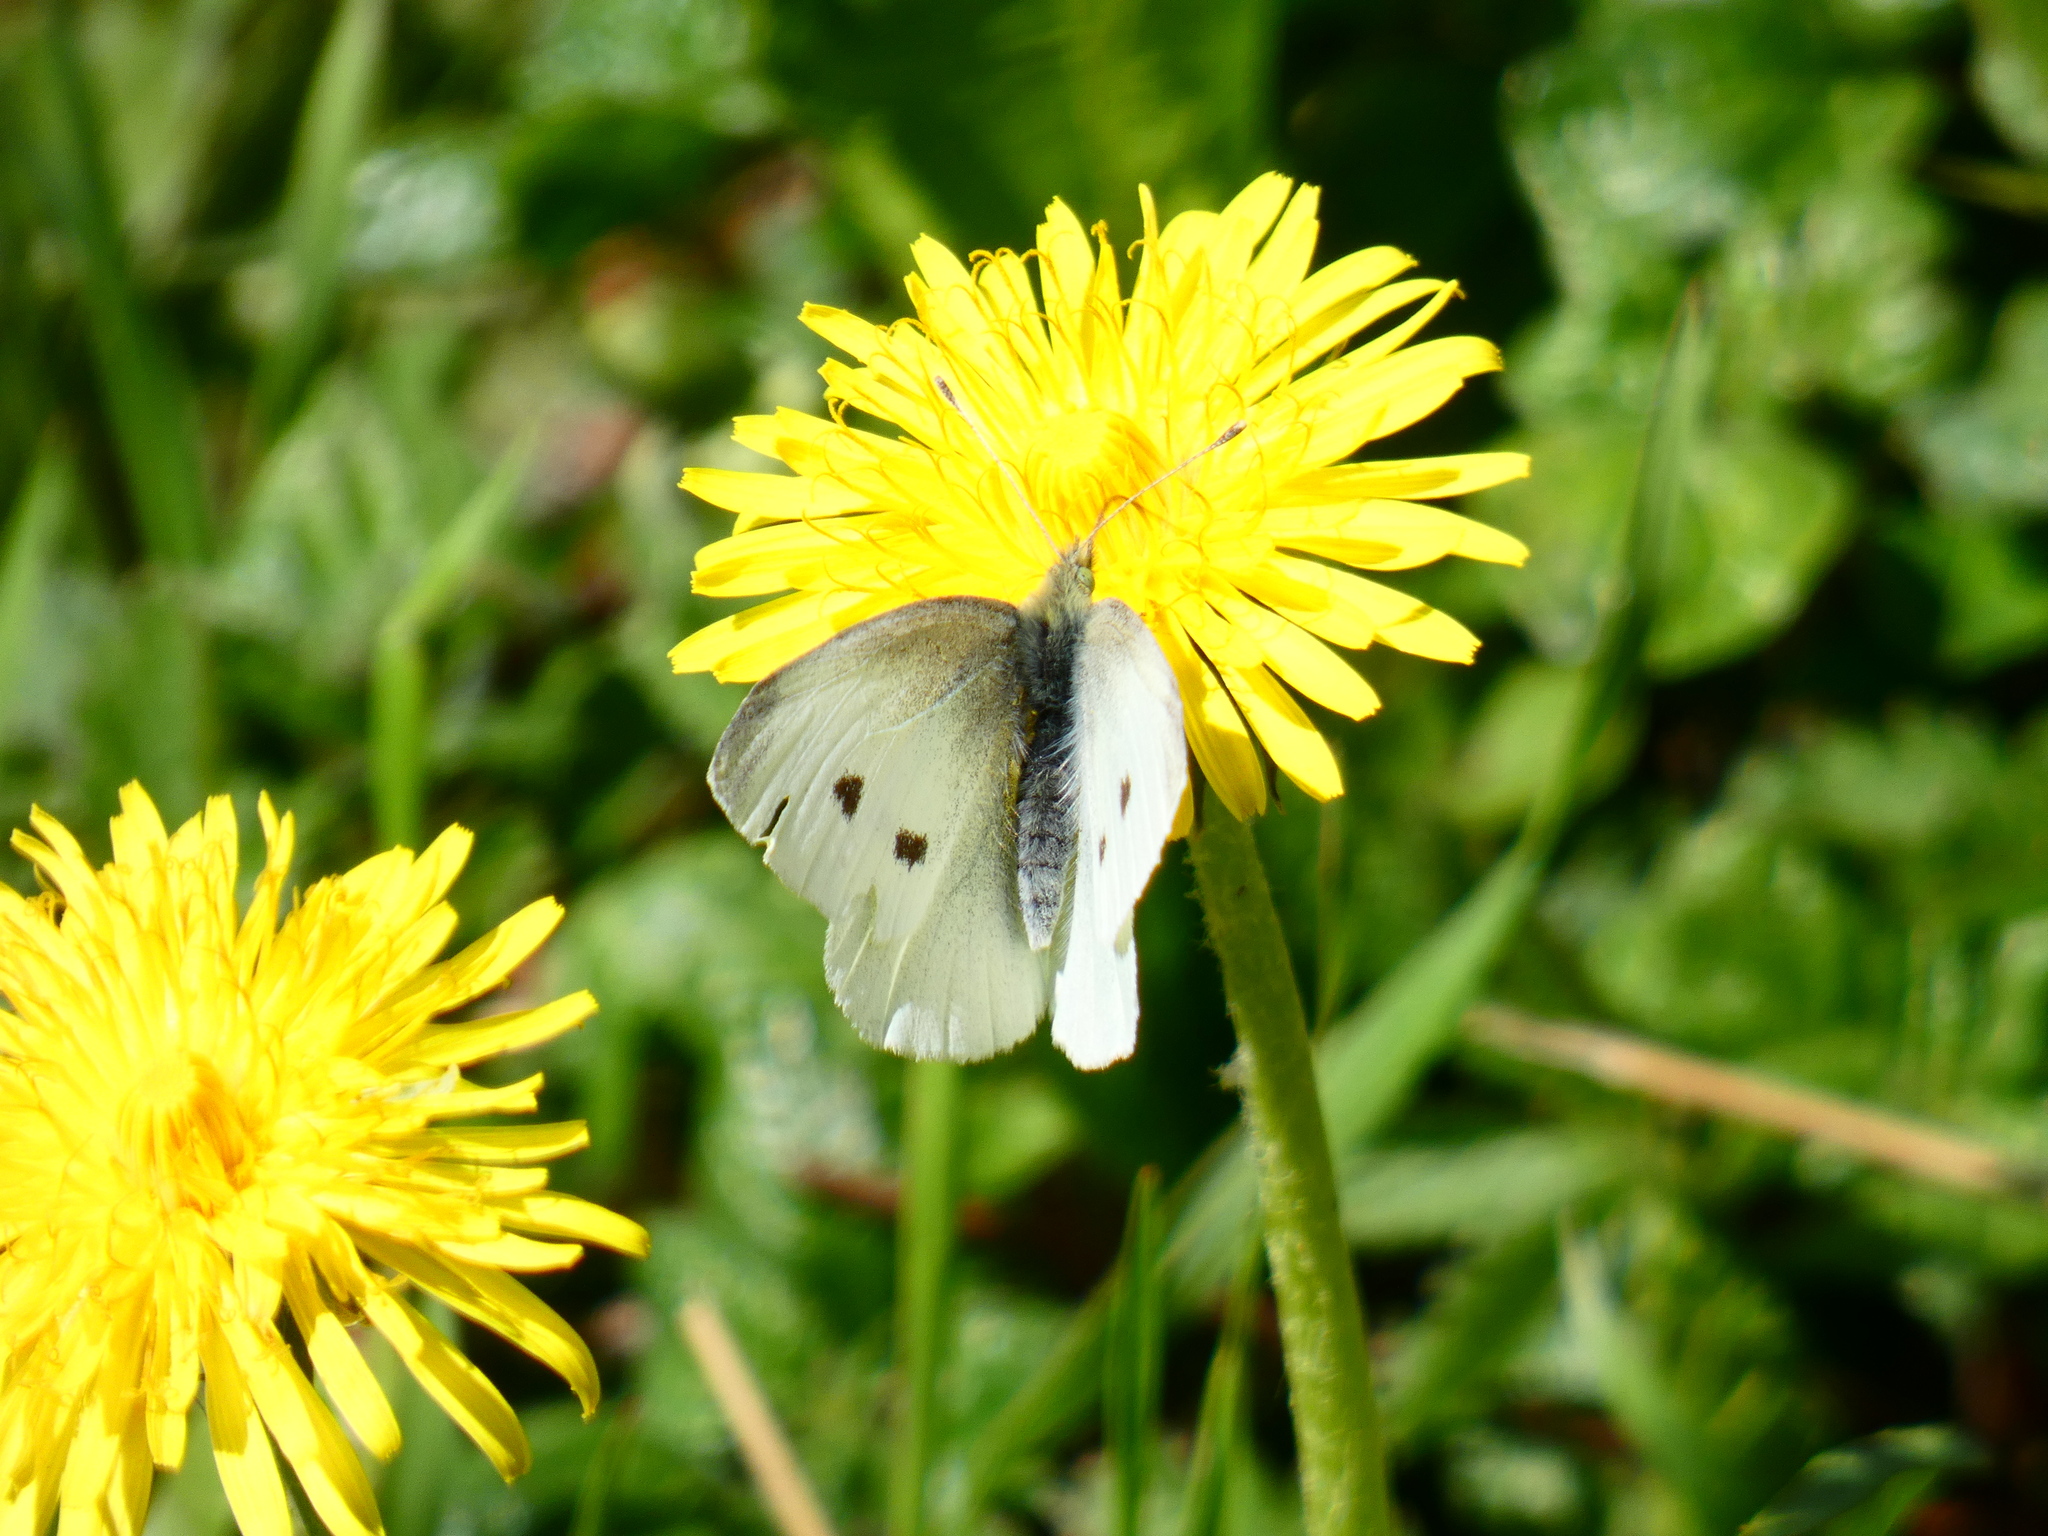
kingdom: Animalia
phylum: Arthropoda
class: Insecta
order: Lepidoptera
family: Pieridae
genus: Pieris
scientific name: Pieris rapae
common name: Small white
